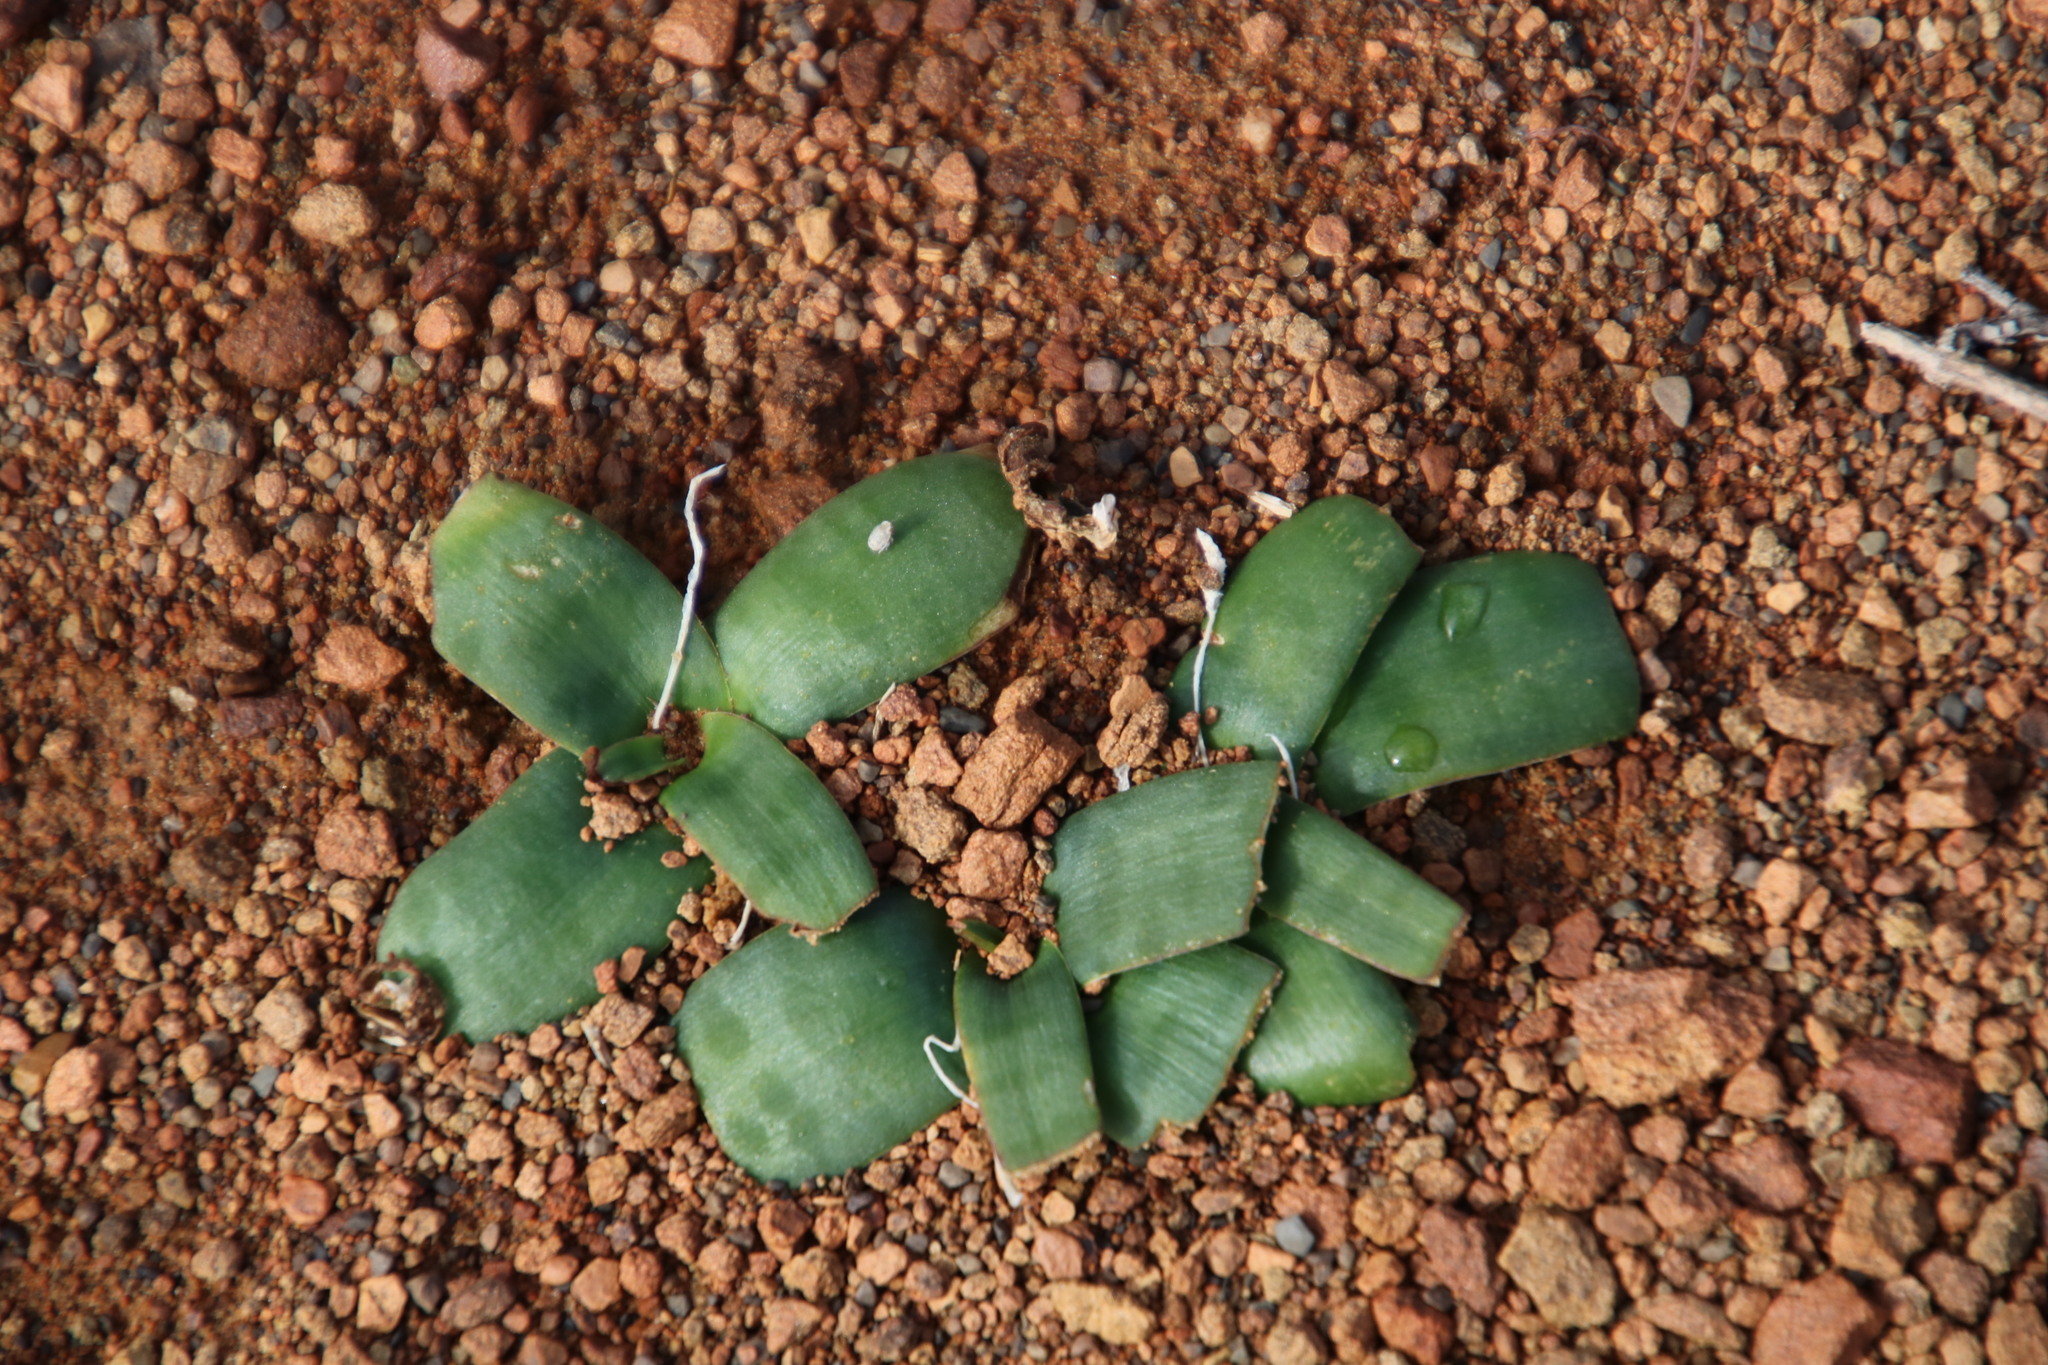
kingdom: Plantae
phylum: Tracheophyta
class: Liliopsida
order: Asparagales
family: Asparagaceae
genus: Ledebouria
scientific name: Ledebouria apertiflora
